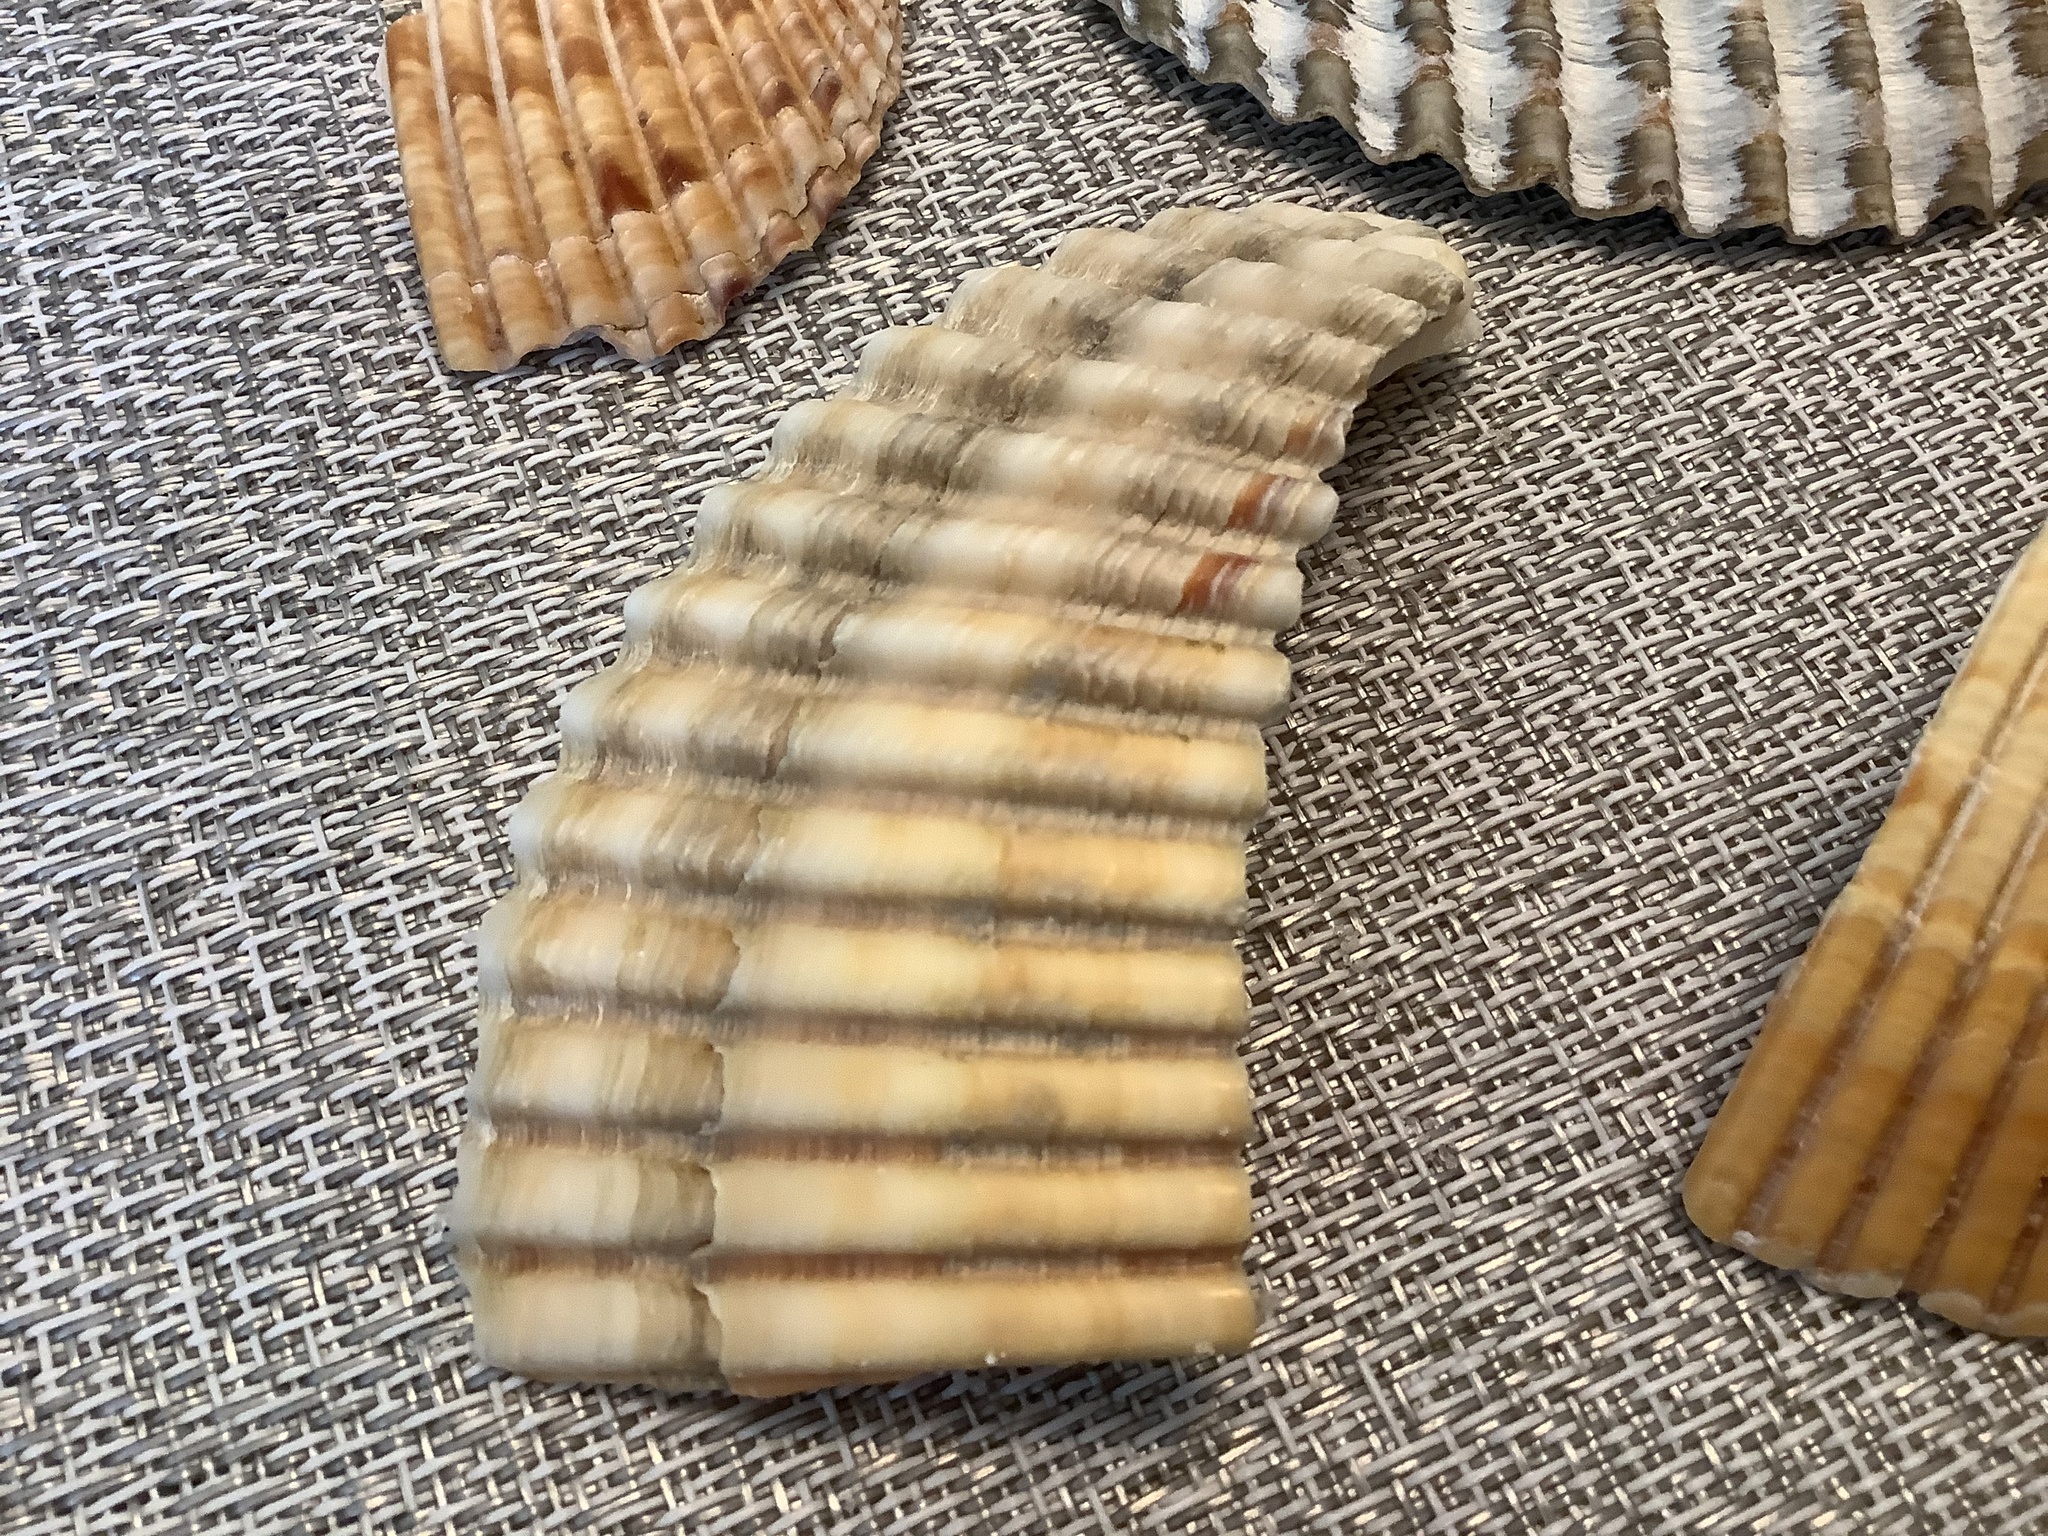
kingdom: Animalia
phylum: Mollusca
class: Bivalvia
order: Cardiida
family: Cardiidae
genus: Dinocardium
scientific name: Dinocardium robustum
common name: Atlantic giant cockle
